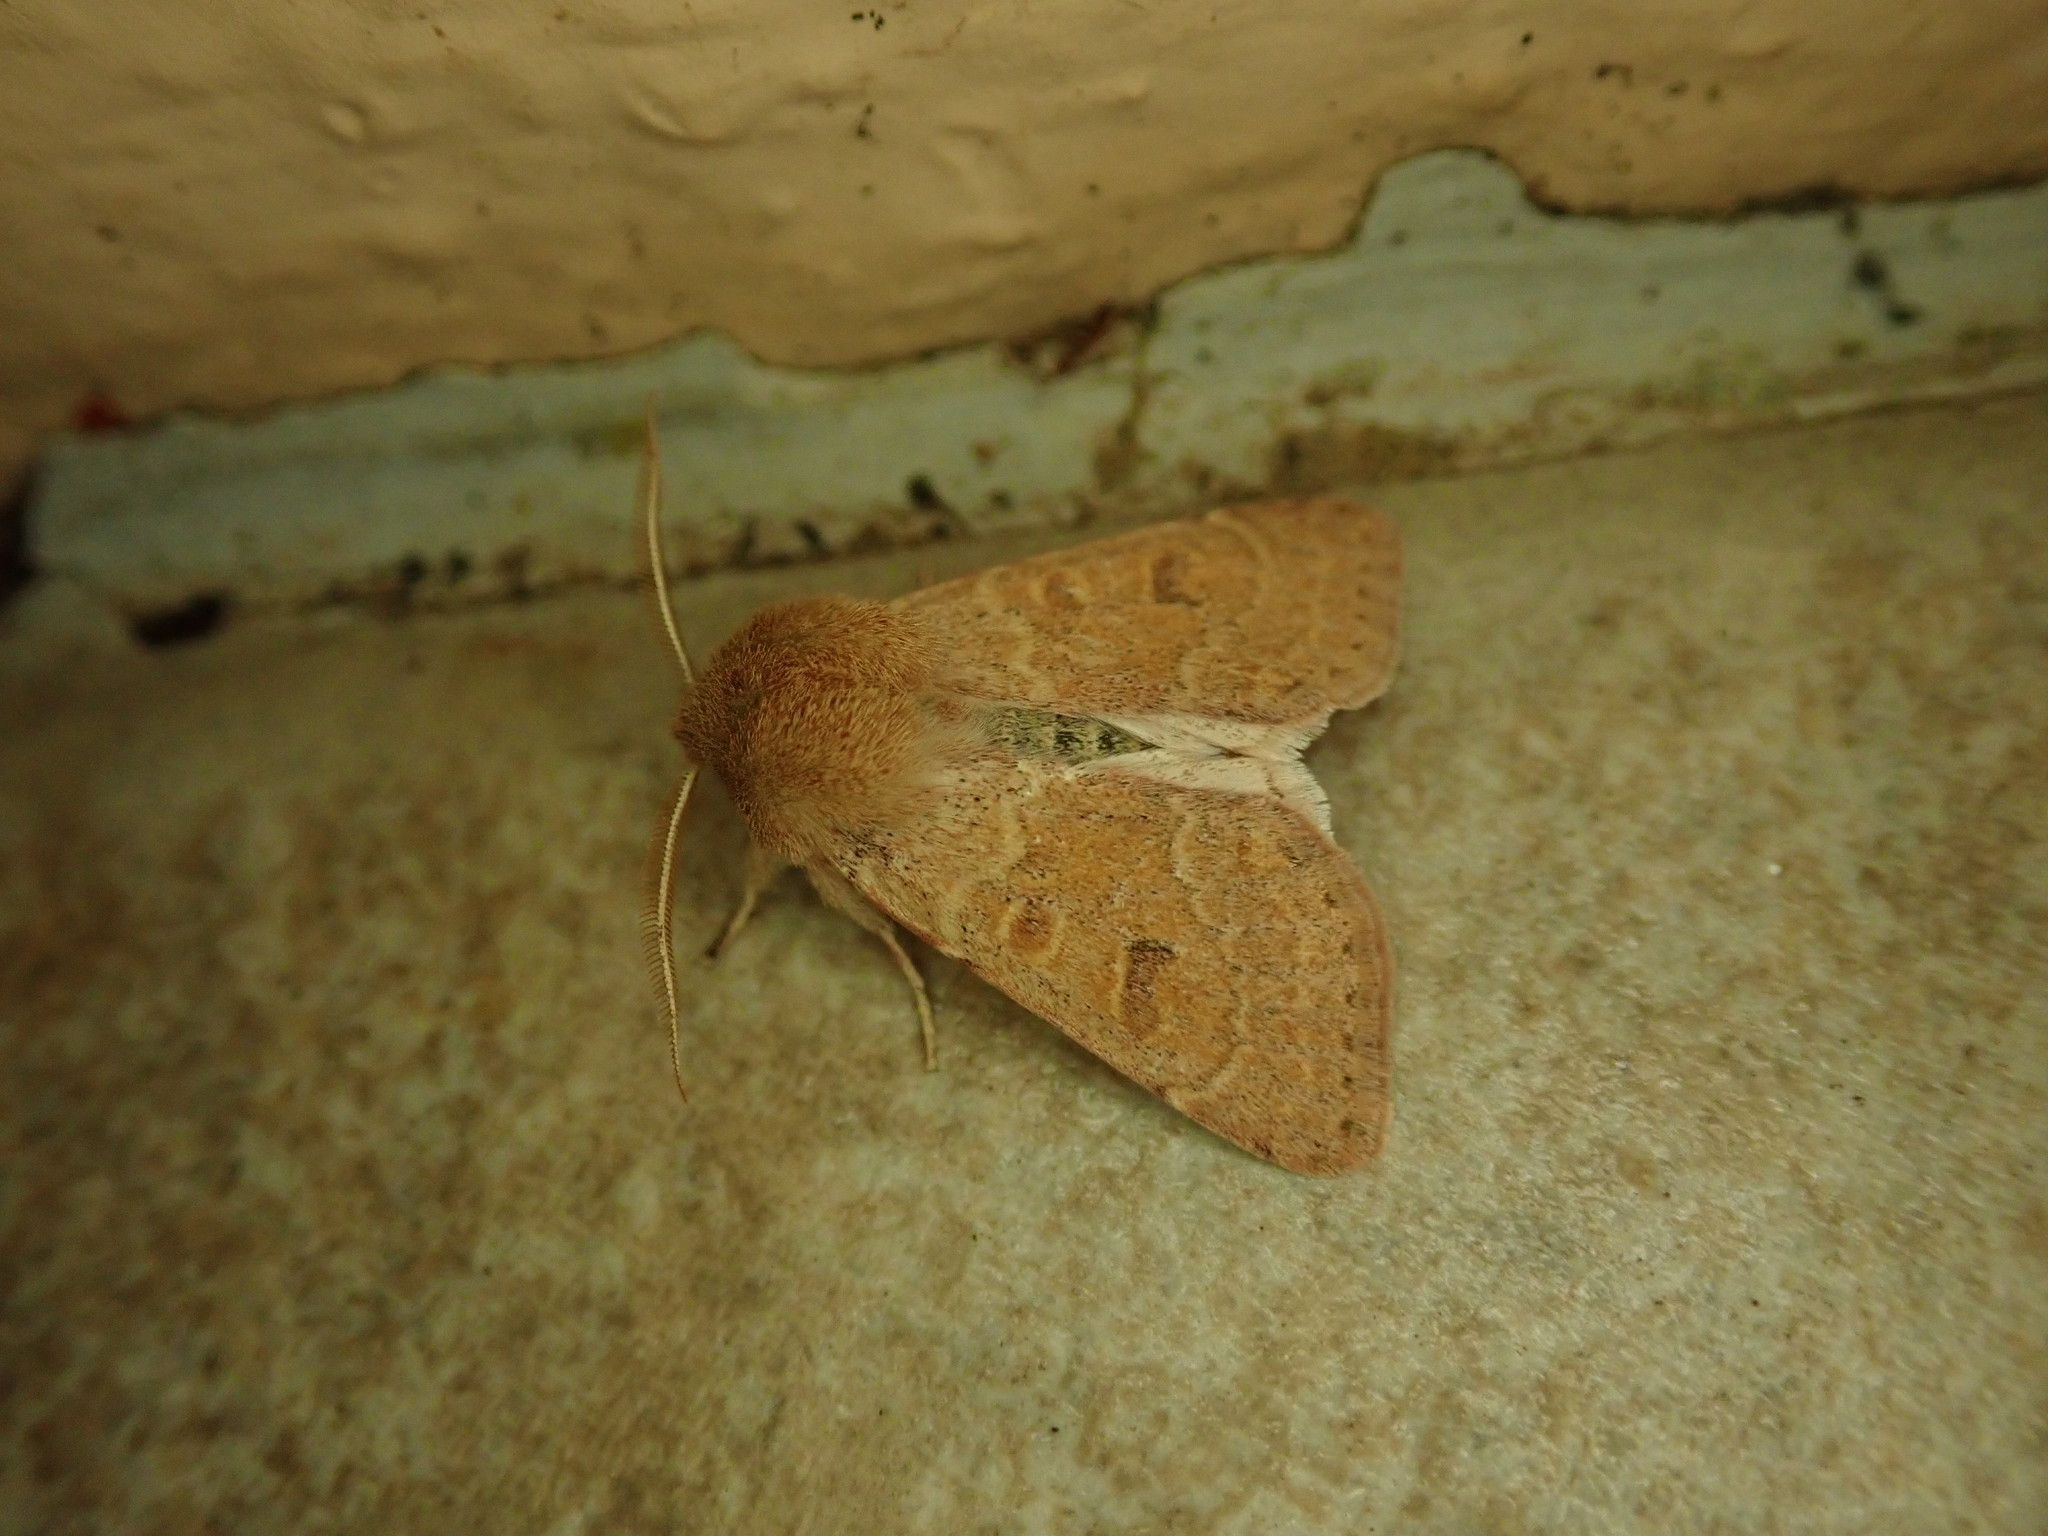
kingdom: Animalia
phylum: Arthropoda
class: Insecta
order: Lepidoptera
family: Noctuidae
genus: Orthosia
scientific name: Orthosia miniosa
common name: Blossom underwing
